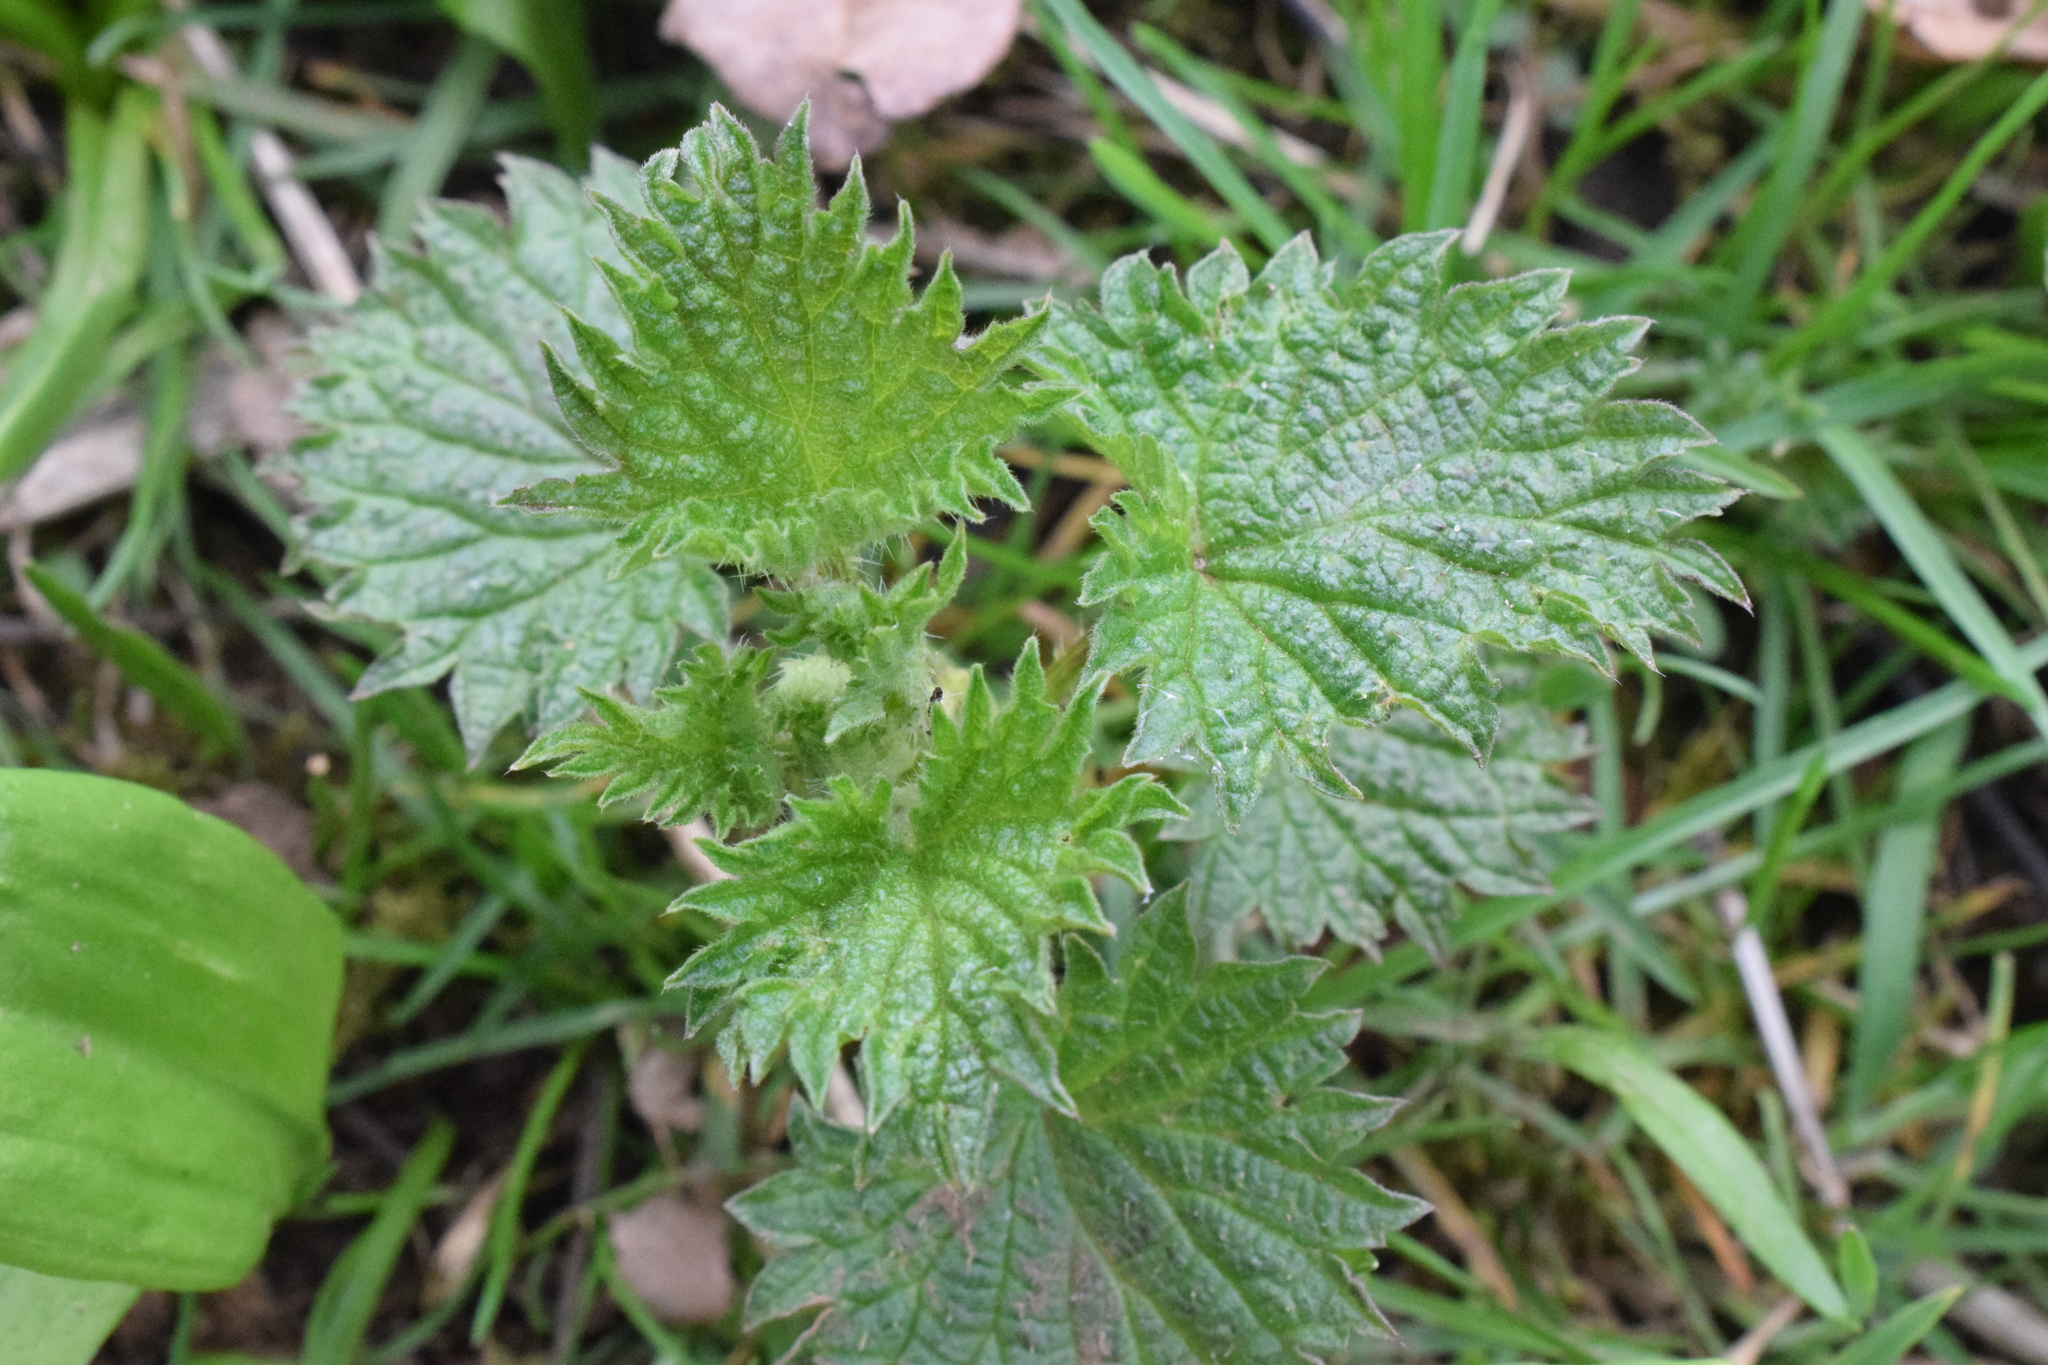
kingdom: Plantae
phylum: Tracheophyta
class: Magnoliopsida
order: Rosales
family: Urticaceae
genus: Urtica
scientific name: Urtica dioica
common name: Common nettle
